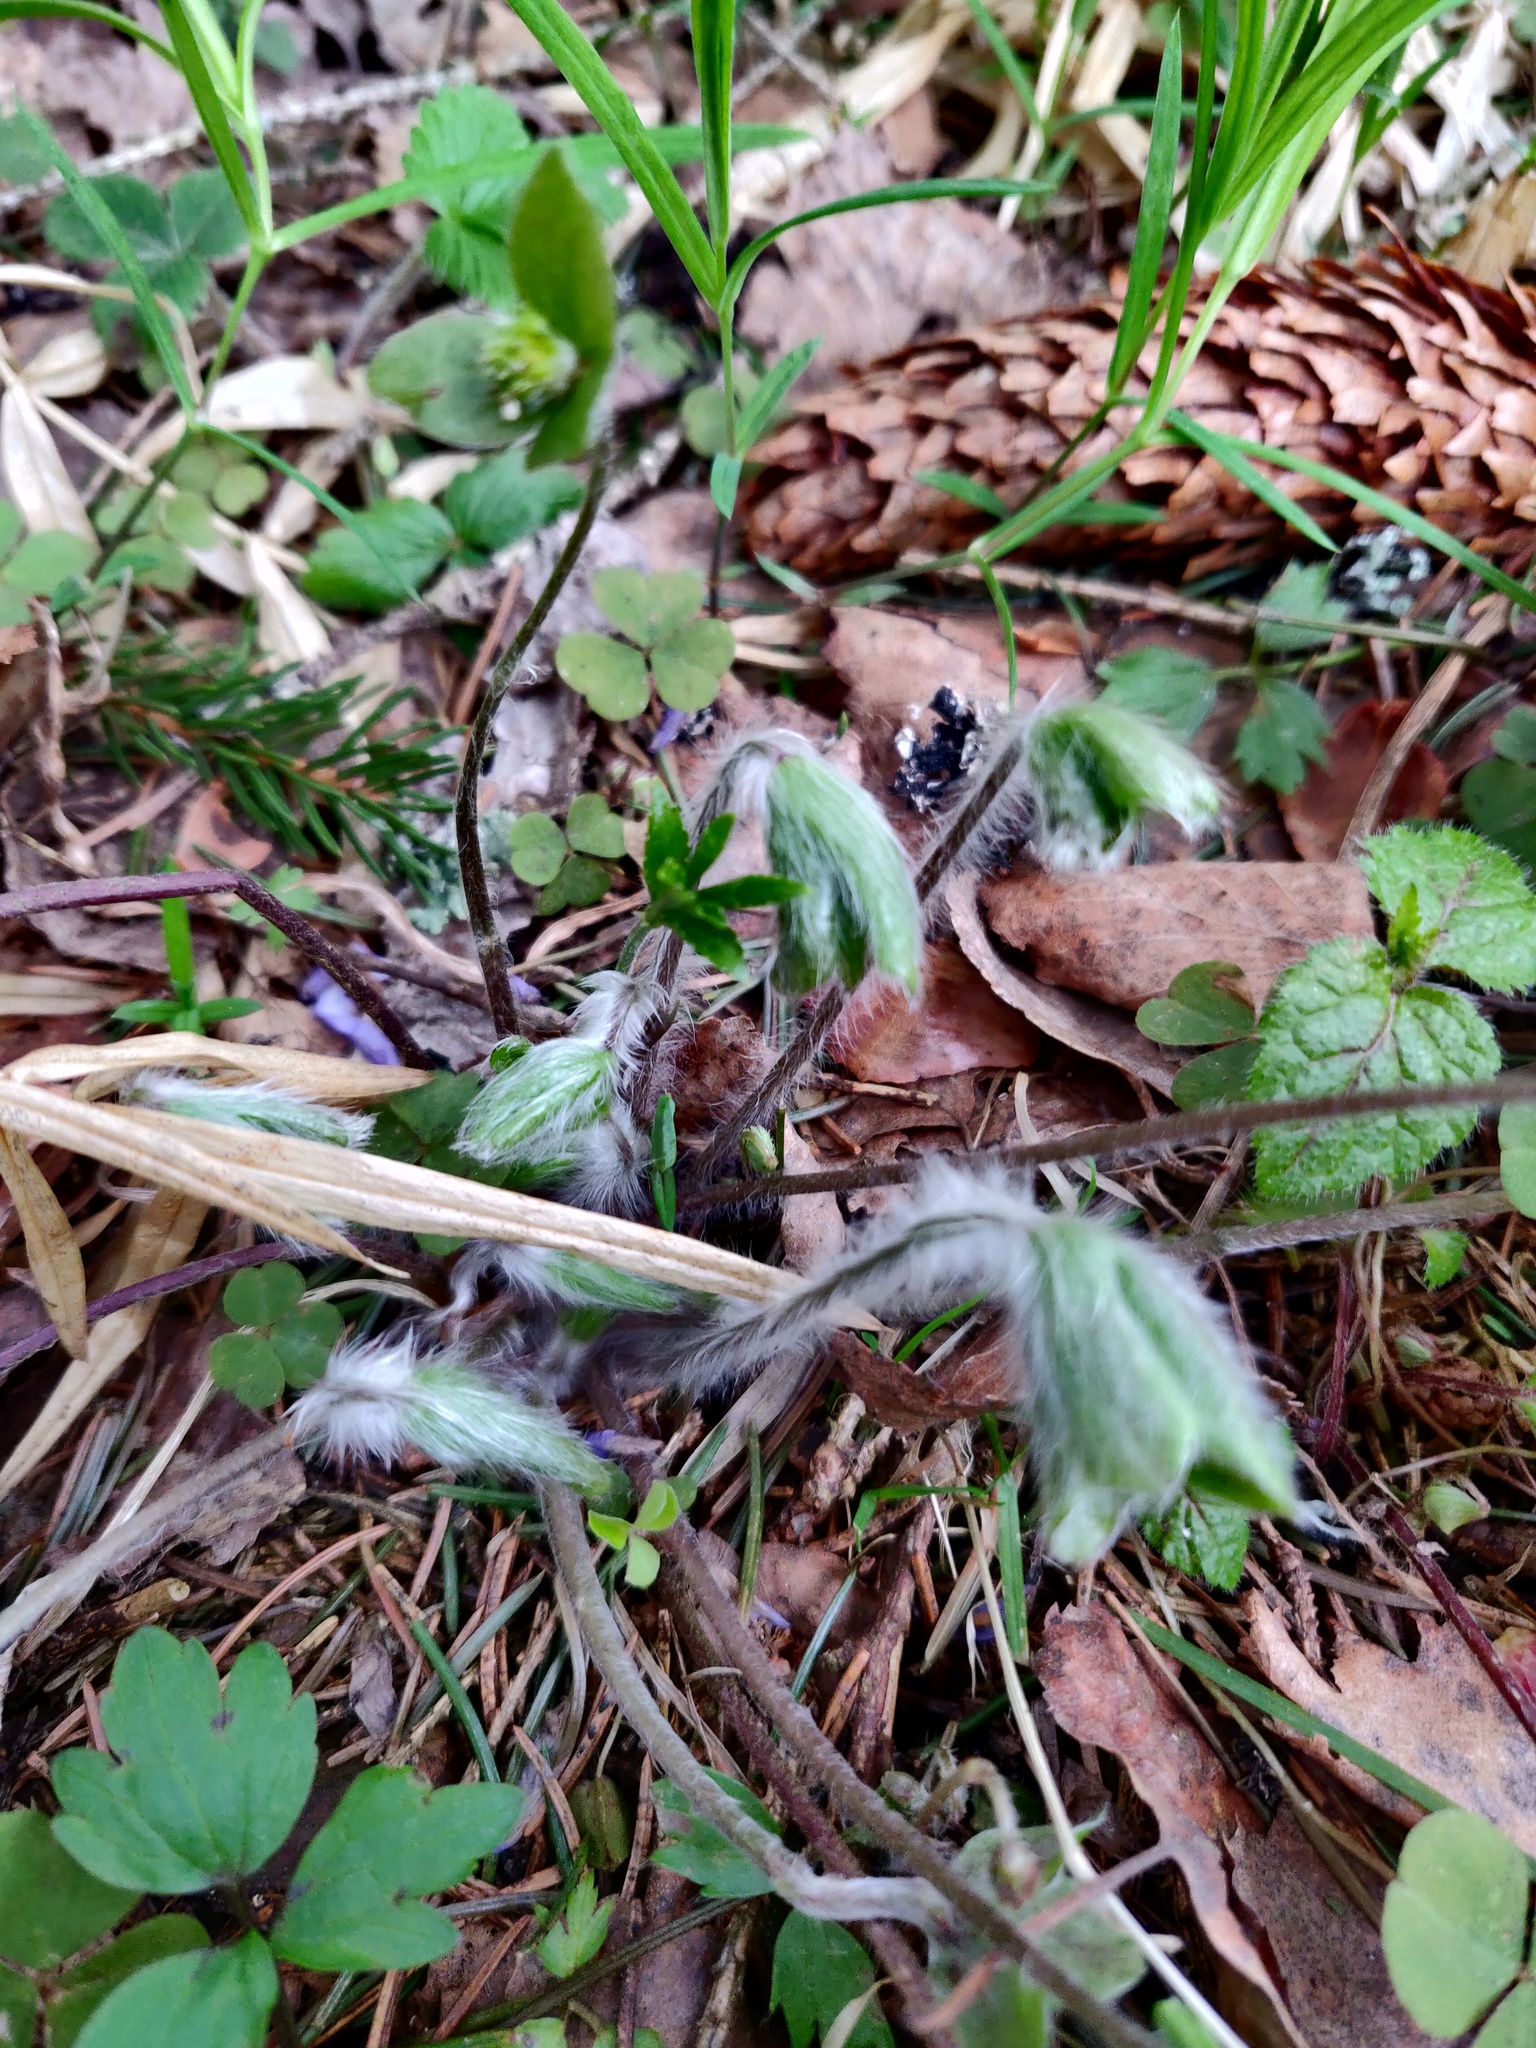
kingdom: Plantae
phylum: Tracheophyta
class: Magnoliopsida
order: Ranunculales
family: Ranunculaceae
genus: Hepatica
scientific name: Hepatica nobilis
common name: Liverleaf
